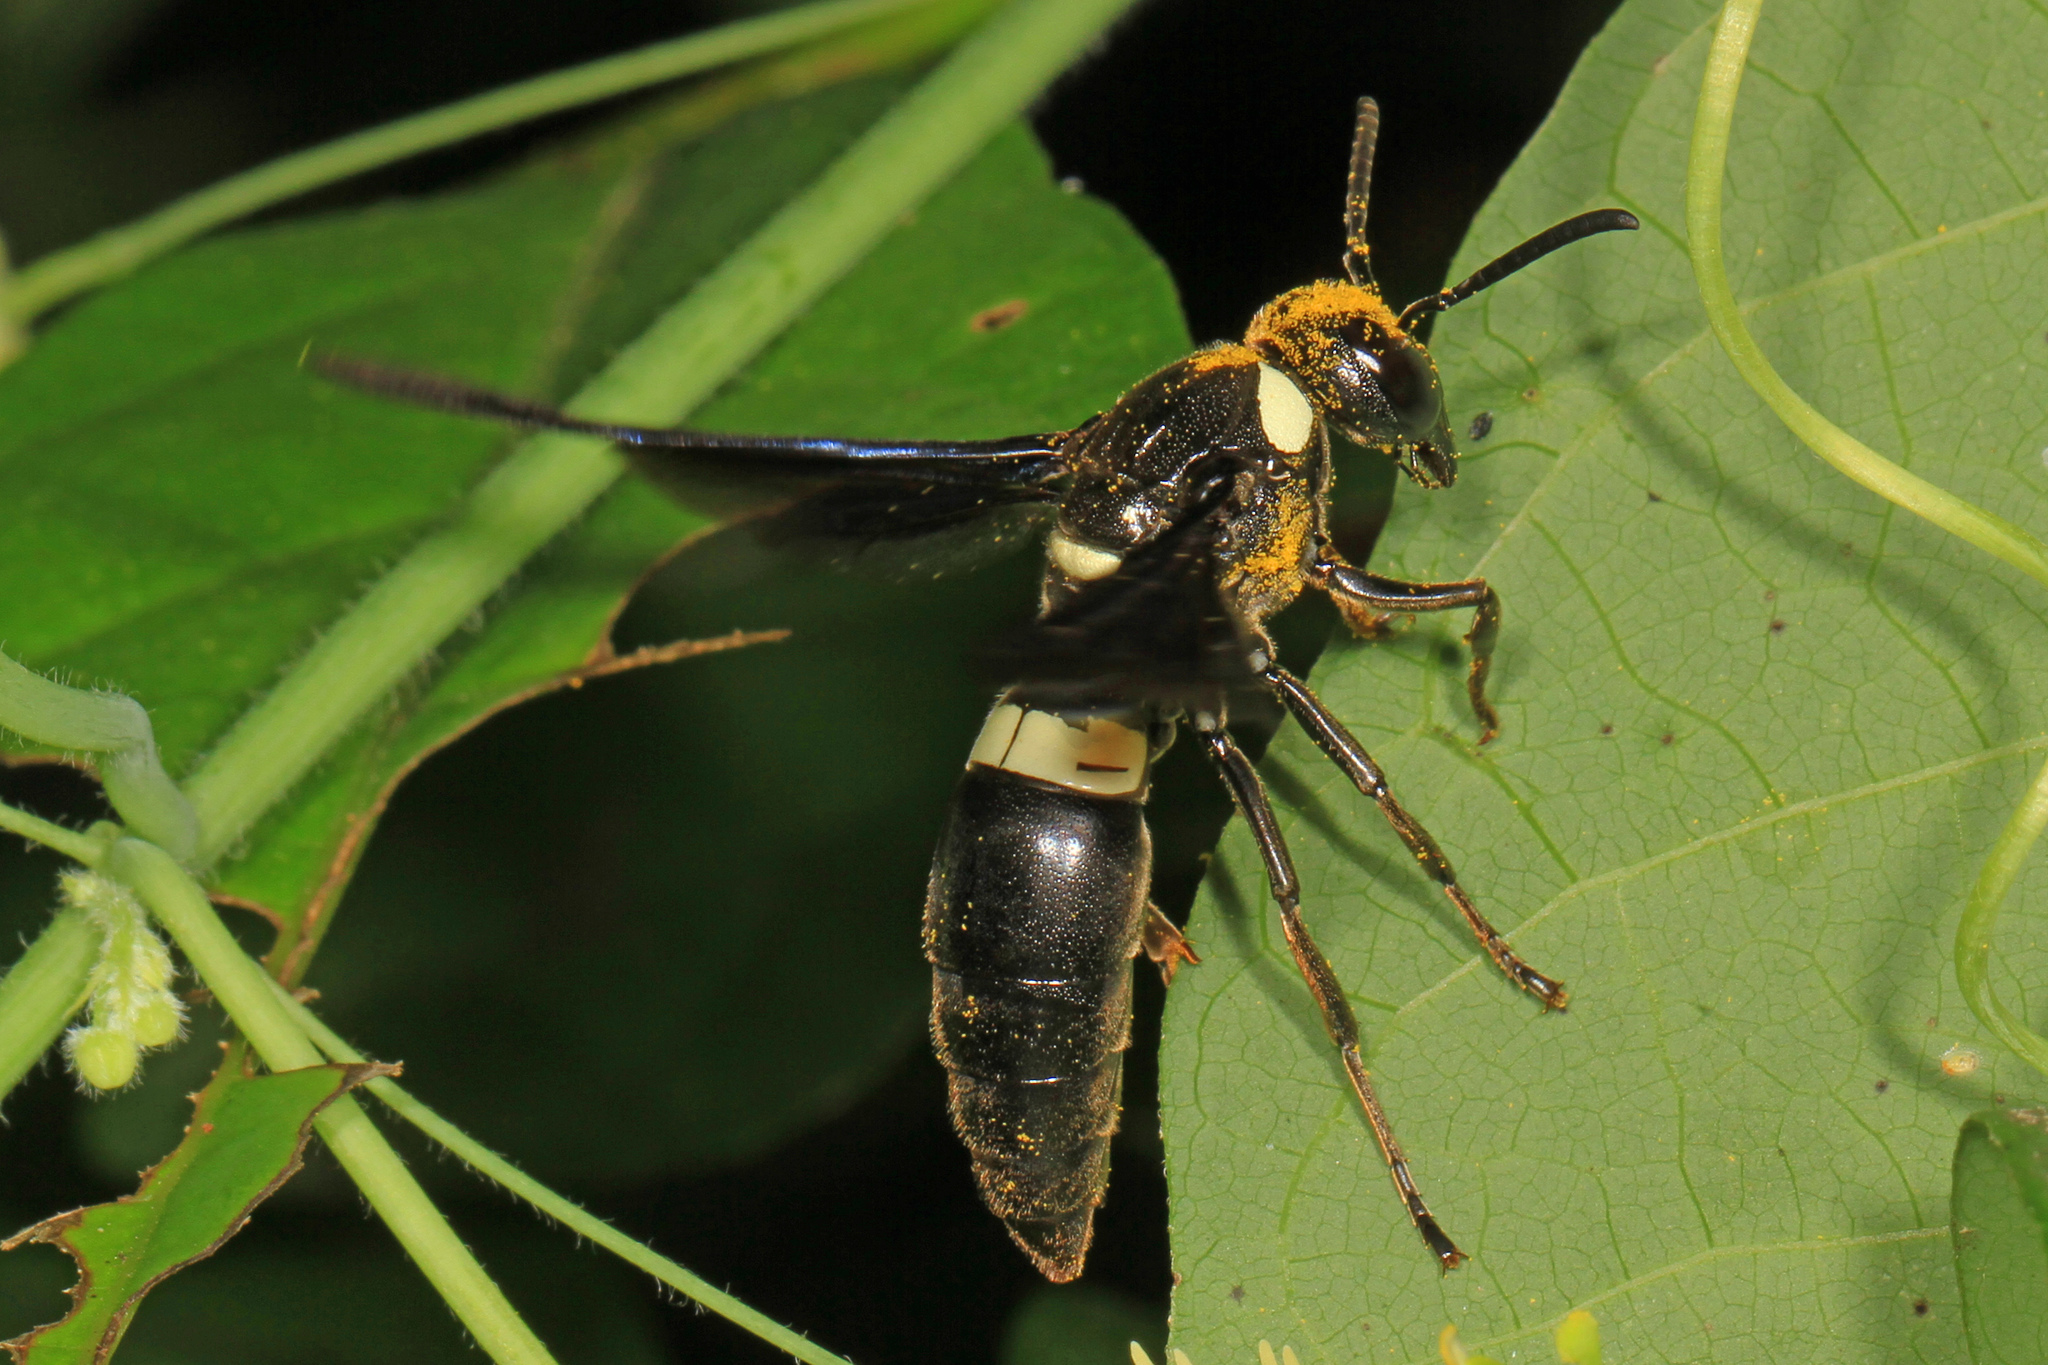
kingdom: Animalia
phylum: Arthropoda
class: Insecta
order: Hymenoptera
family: Eumenidae
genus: Monobia
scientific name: Monobia quadridens
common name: Four-toothed mason wasp
